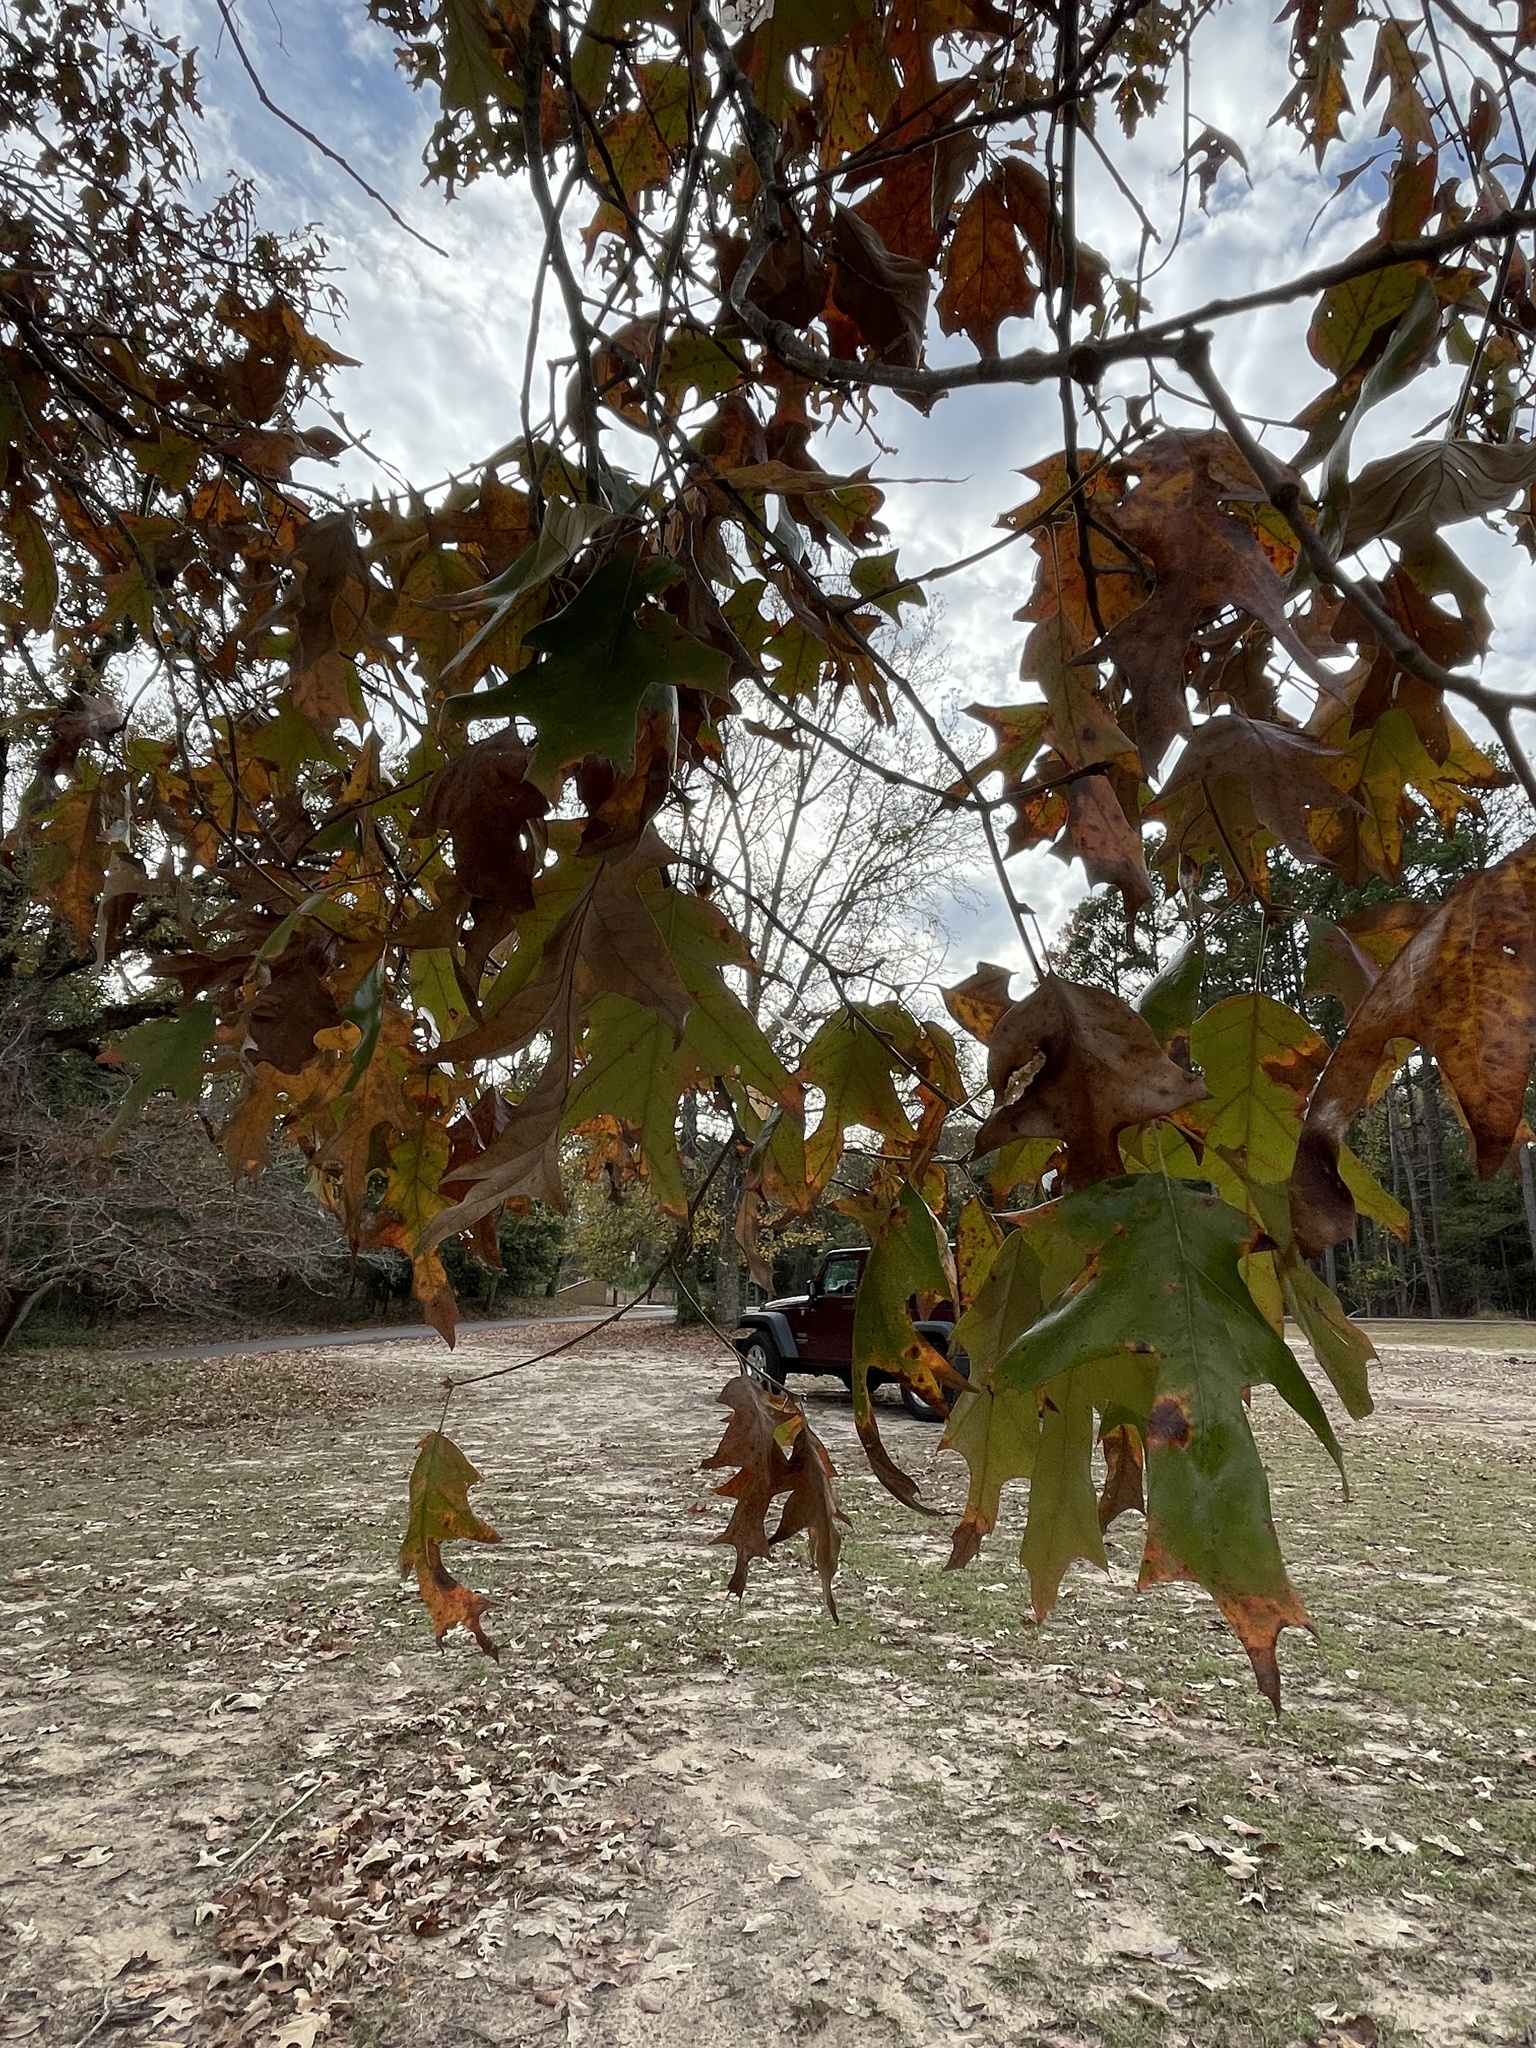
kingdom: Plantae
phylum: Tracheophyta
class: Magnoliopsida
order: Fagales
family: Fagaceae
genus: Quercus
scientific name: Quercus pagoda
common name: Cherrybark oak
